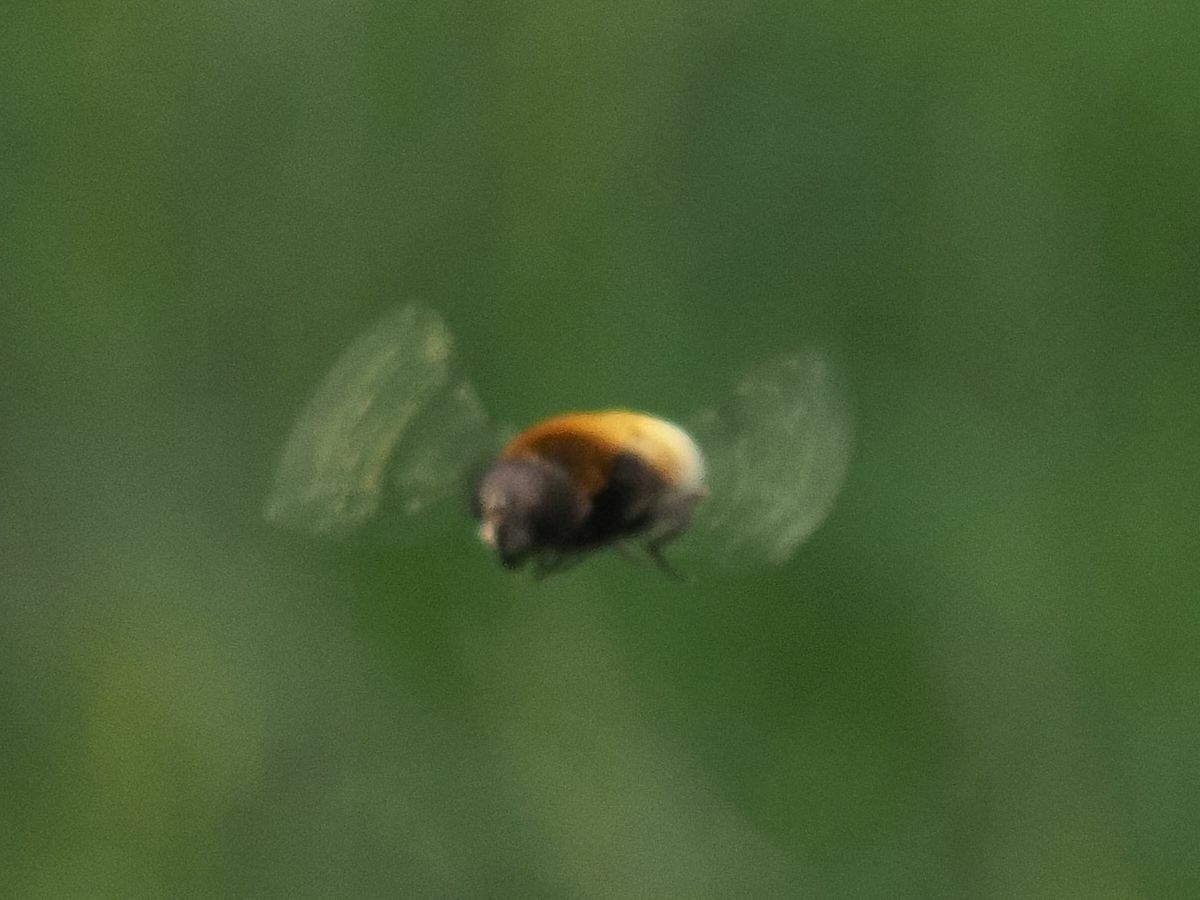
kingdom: Animalia
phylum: Arthropoda
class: Insecta
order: Diptera
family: Syrphidae
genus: Eristalis
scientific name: Eristalis intricaria
